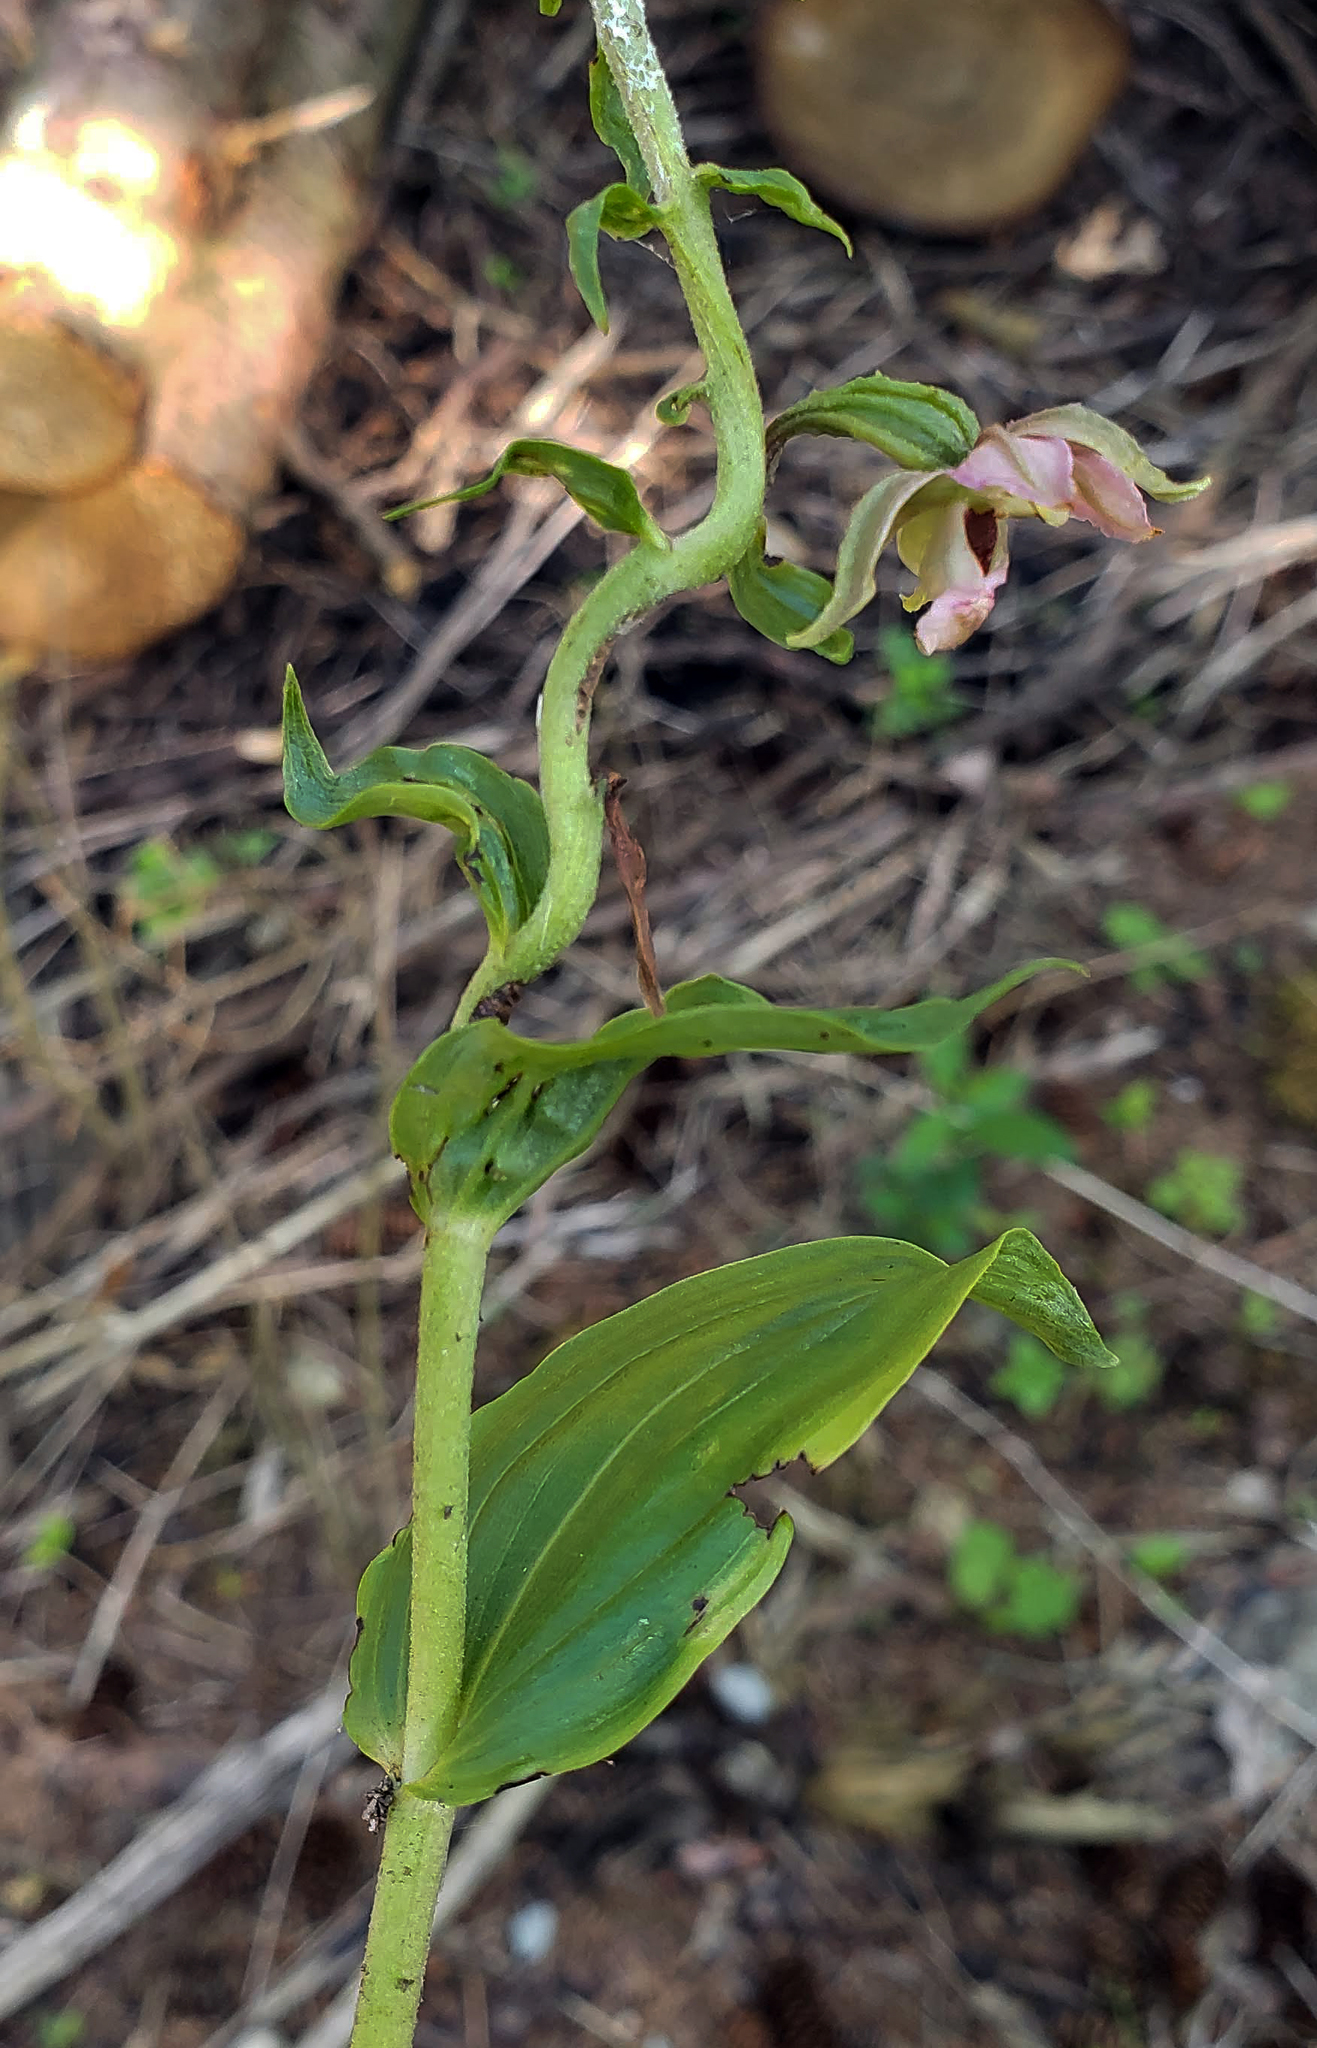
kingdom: Plantae
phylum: Tracheophyta
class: Liliopsida
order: Asparagales
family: Orchidaceae
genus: Epipactis
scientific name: Epipactis helleborine
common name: Broad-leaved helleborine
